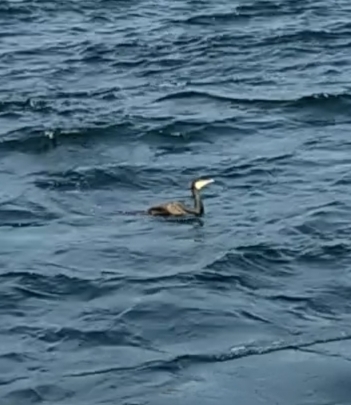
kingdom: Animalia
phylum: Chordata
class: Aves
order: Suliformes
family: Phalacrocoracidae
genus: Phalacrocorax
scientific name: Phalacrocorax carbo
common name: Great cormorant
